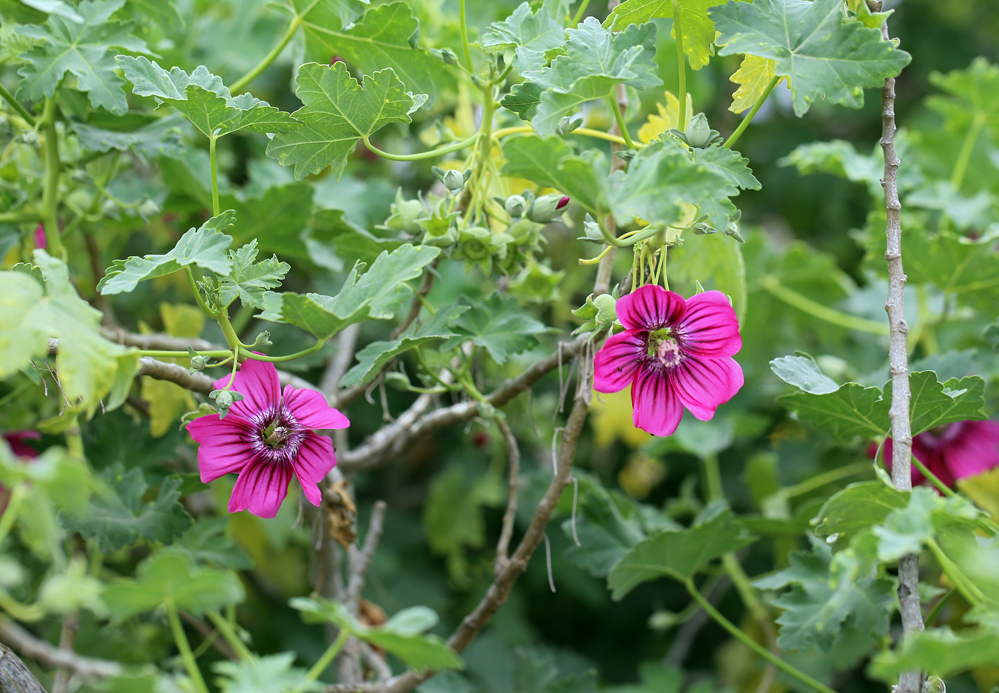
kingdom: Plantae
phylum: Tracheophyta
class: Magnoliopsida
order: Malvales
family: Malvaceae
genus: Malva
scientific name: Malva assurgentiflora
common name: Island mallow
